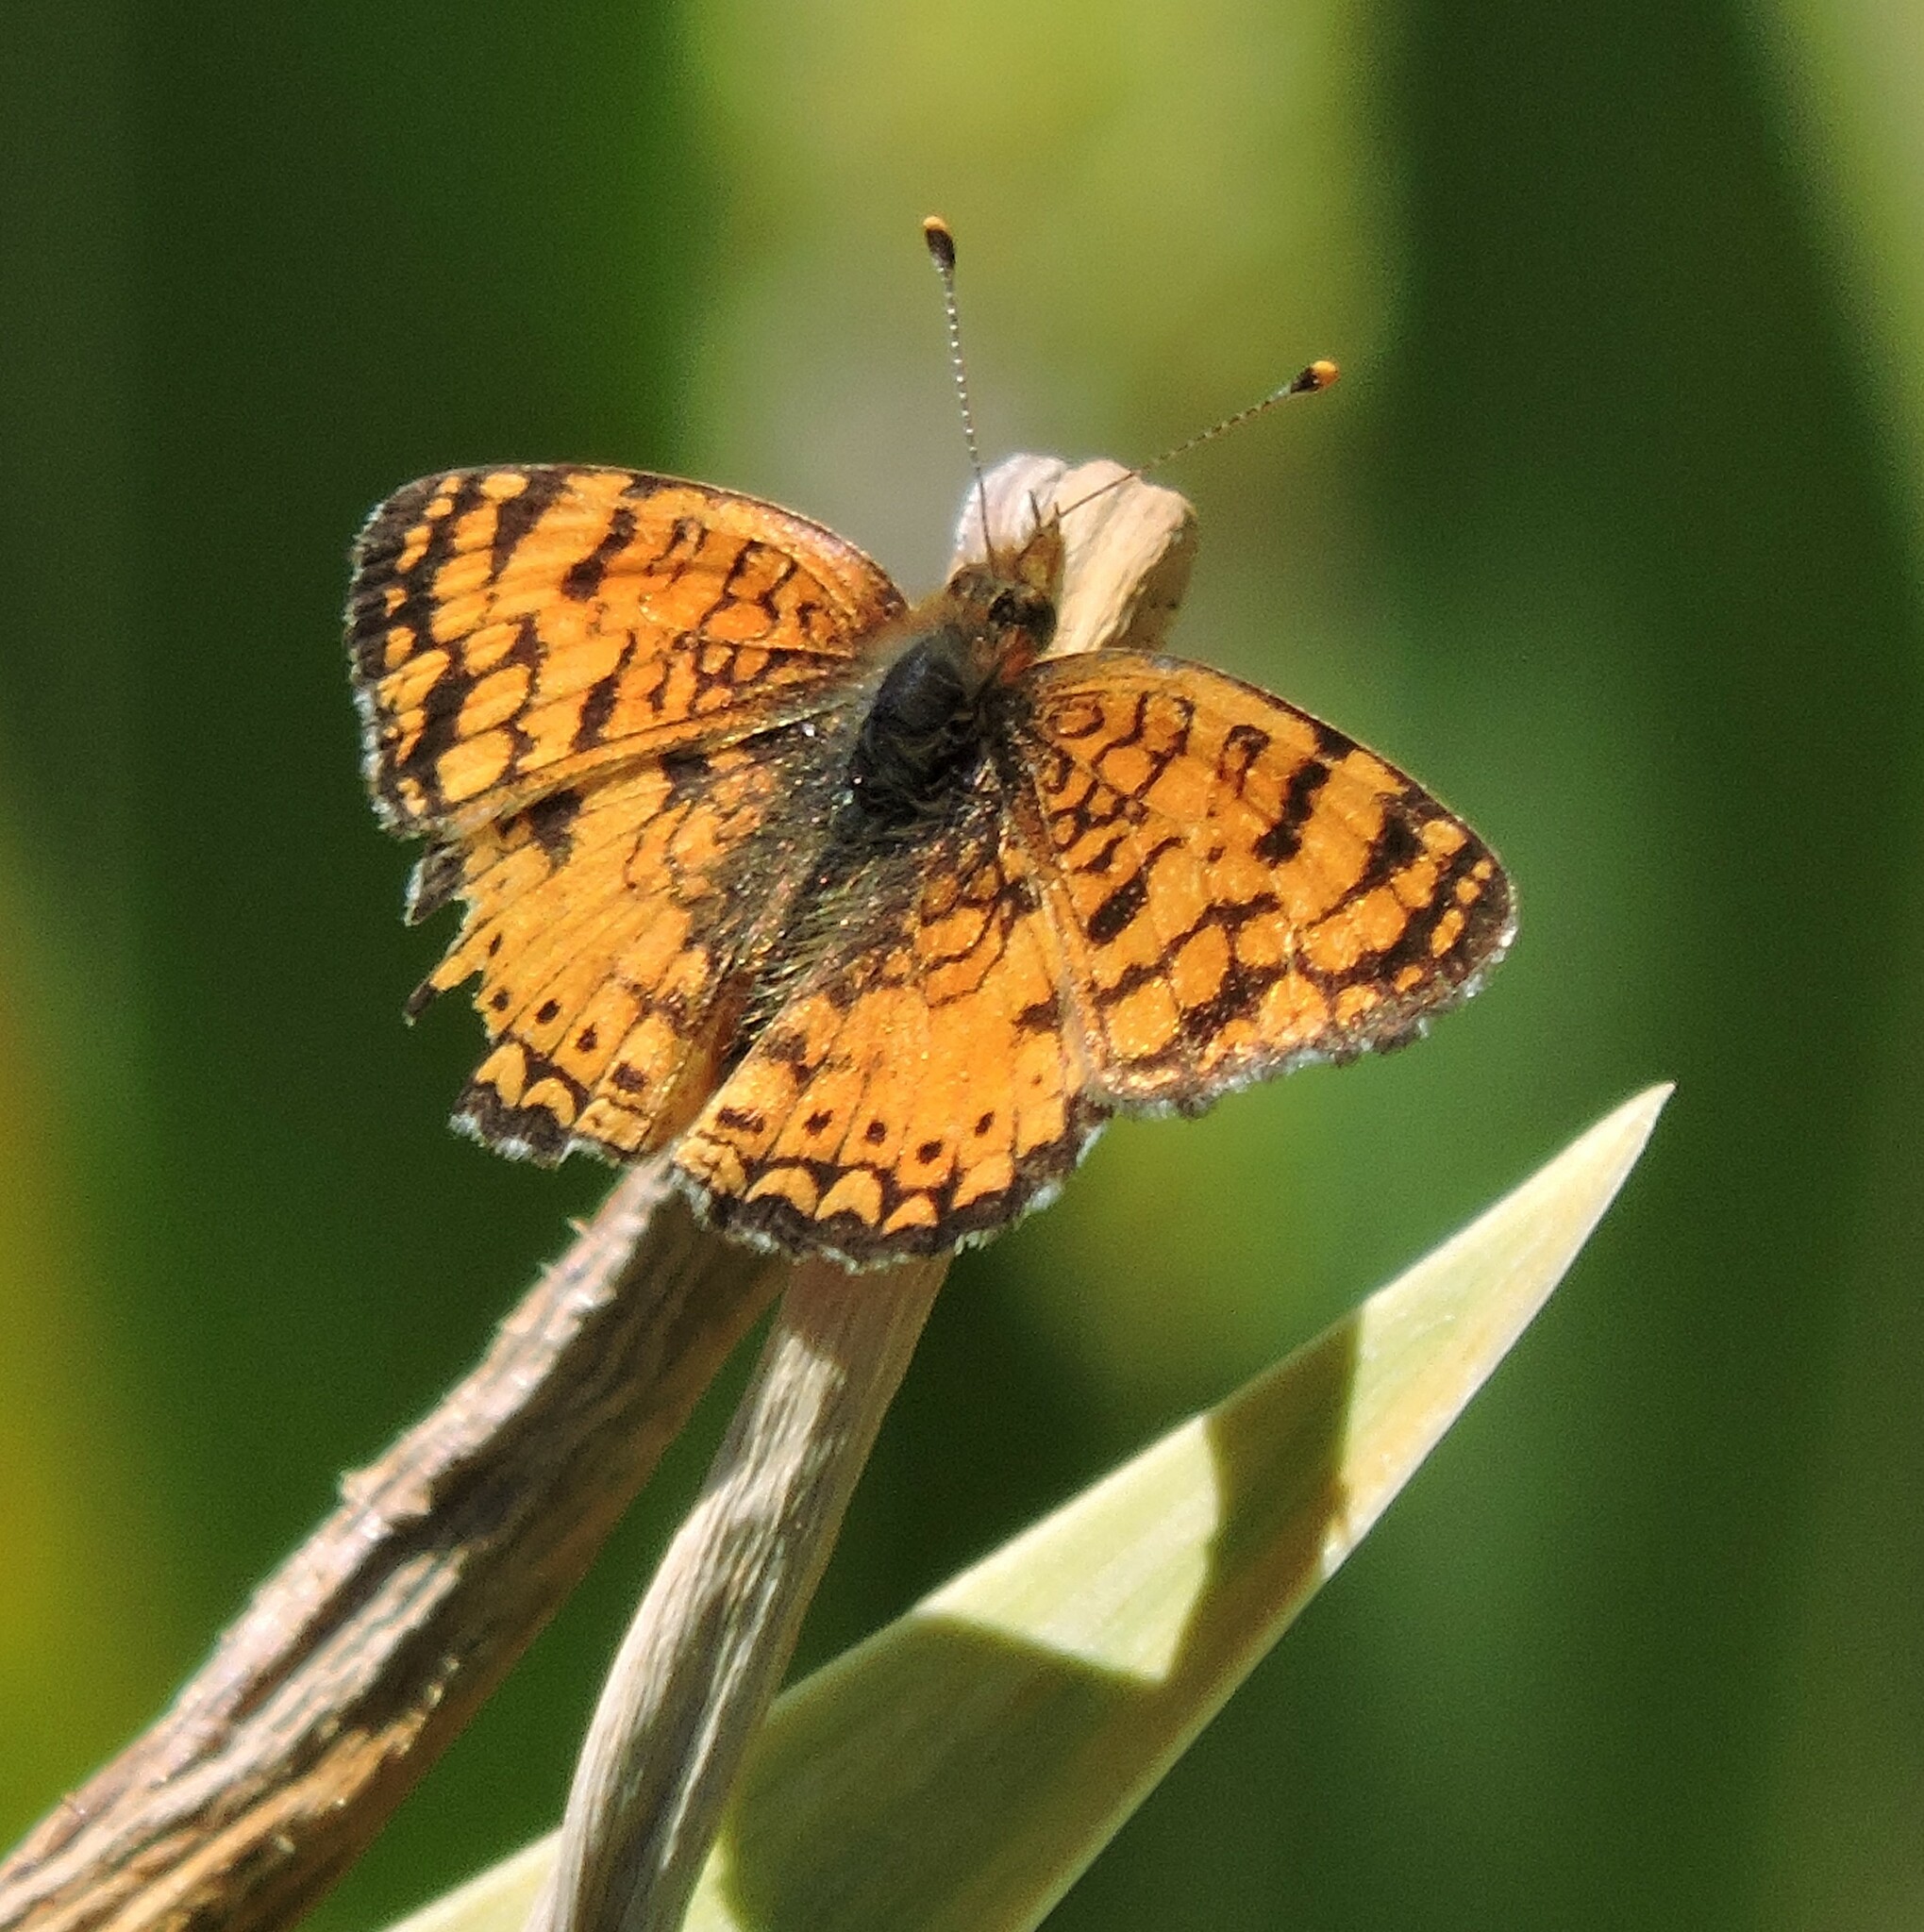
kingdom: Animalia
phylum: Arthropoda
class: Insecta
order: Lepidoptera
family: Nymphalidae
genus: Eresia
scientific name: Eresia aveyrona
